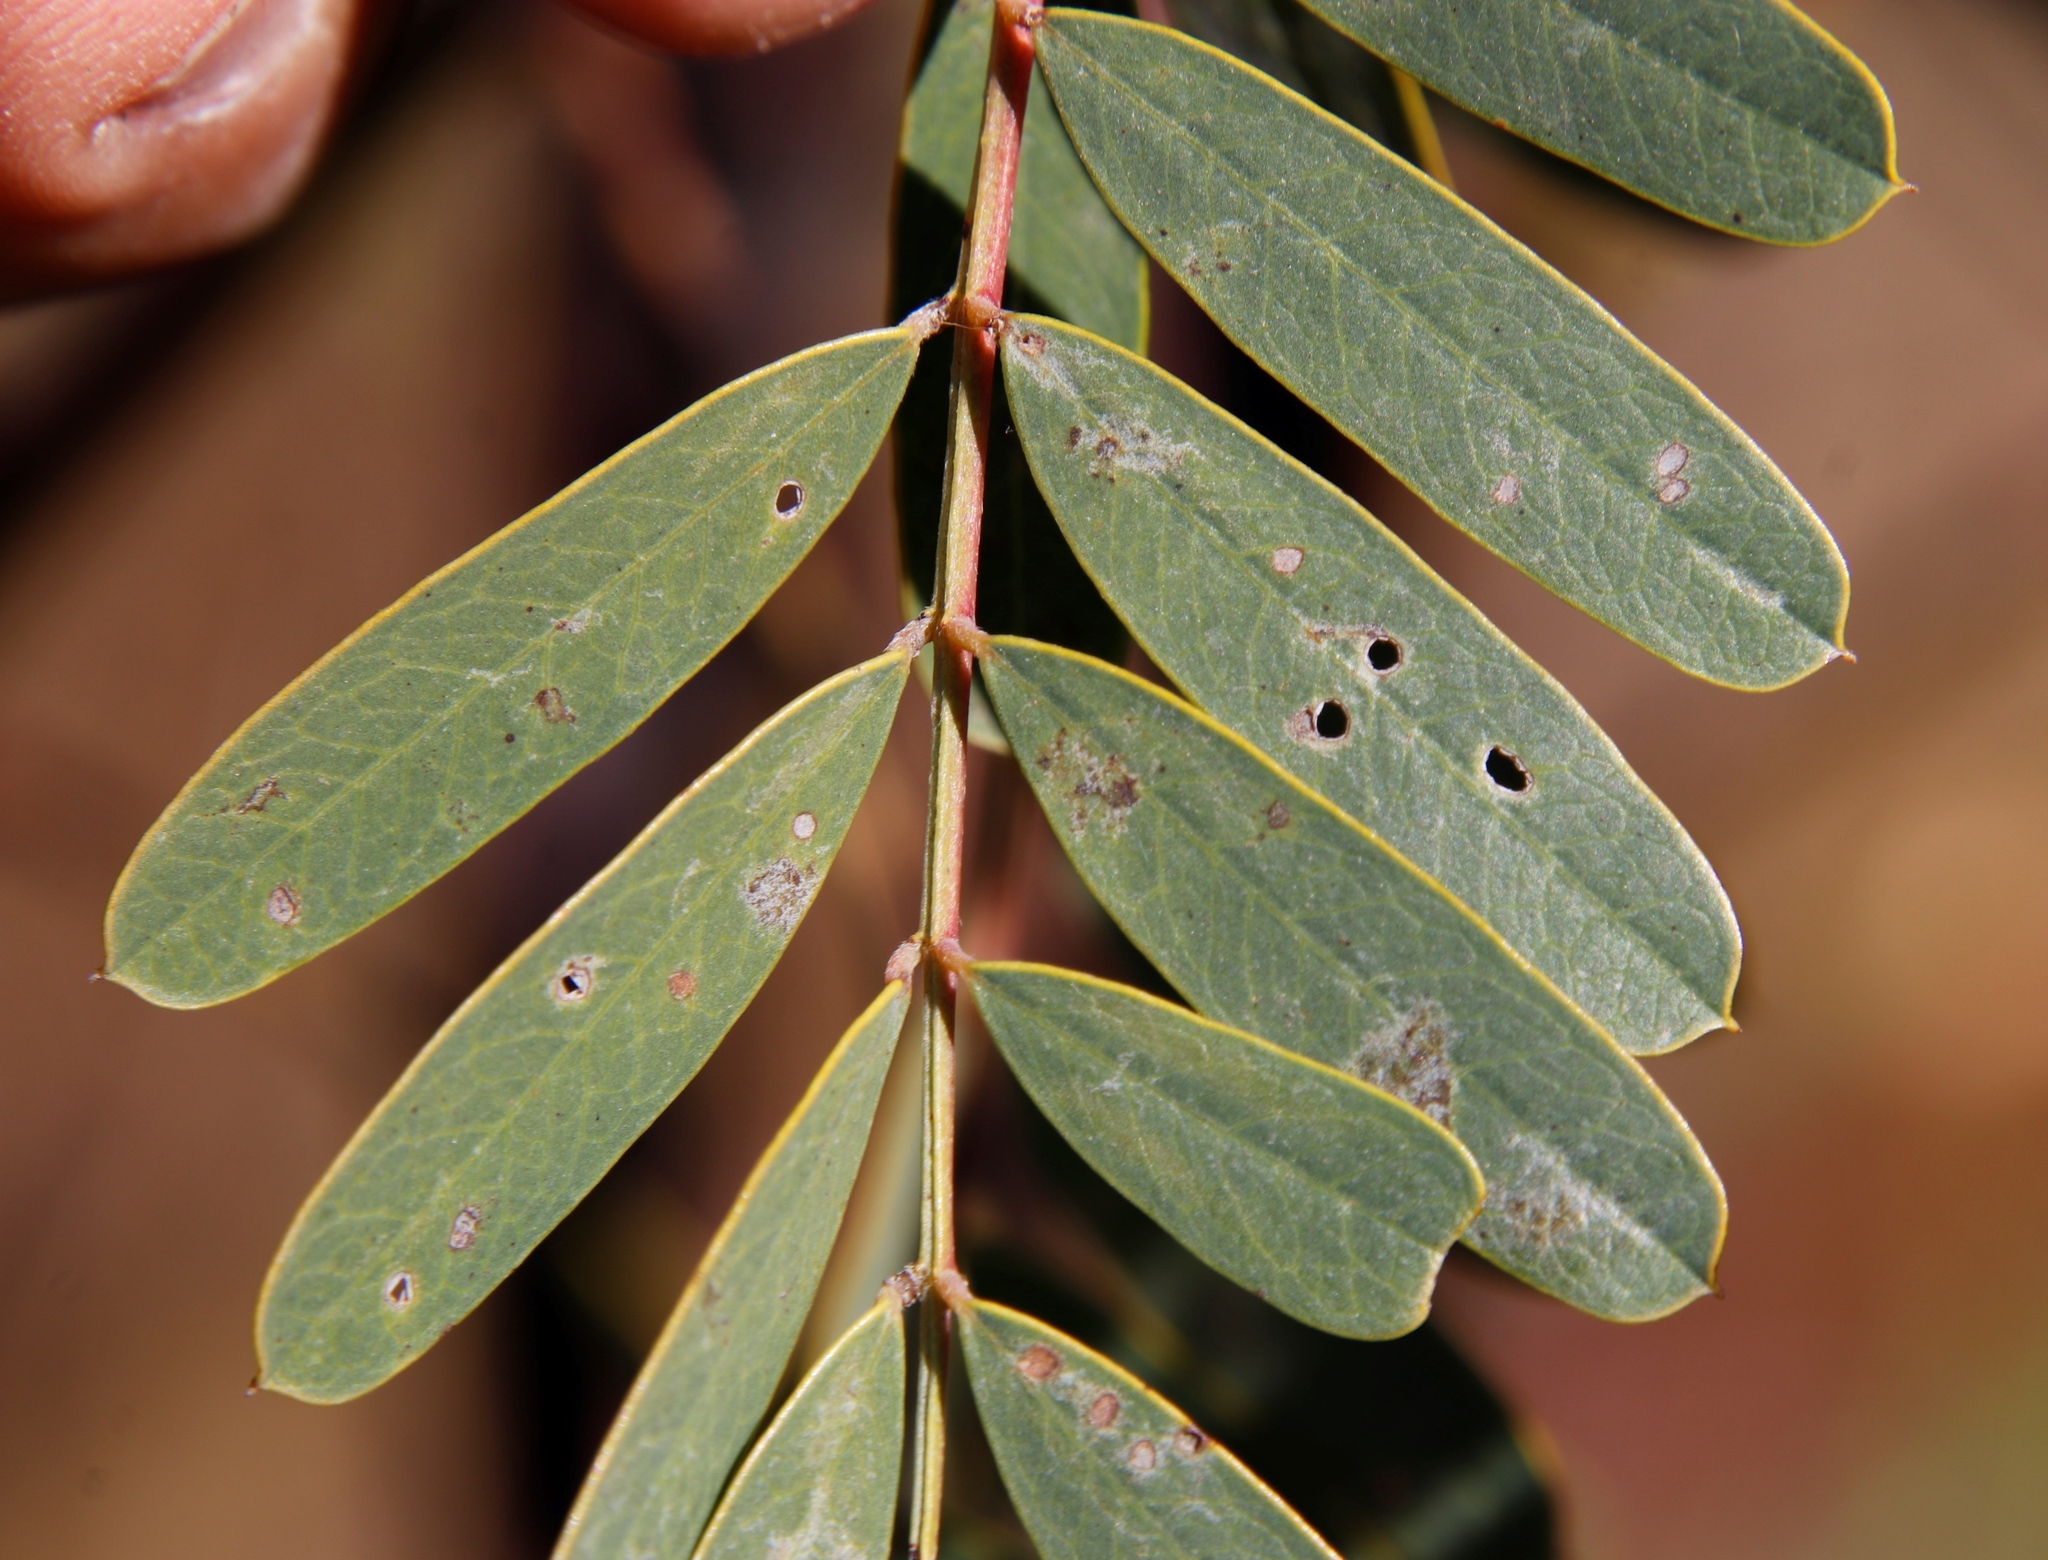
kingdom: Animalia
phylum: Arthropoda
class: Insecta
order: Coleoptera
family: Brentidae
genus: Trichapion
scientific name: Trichapion
